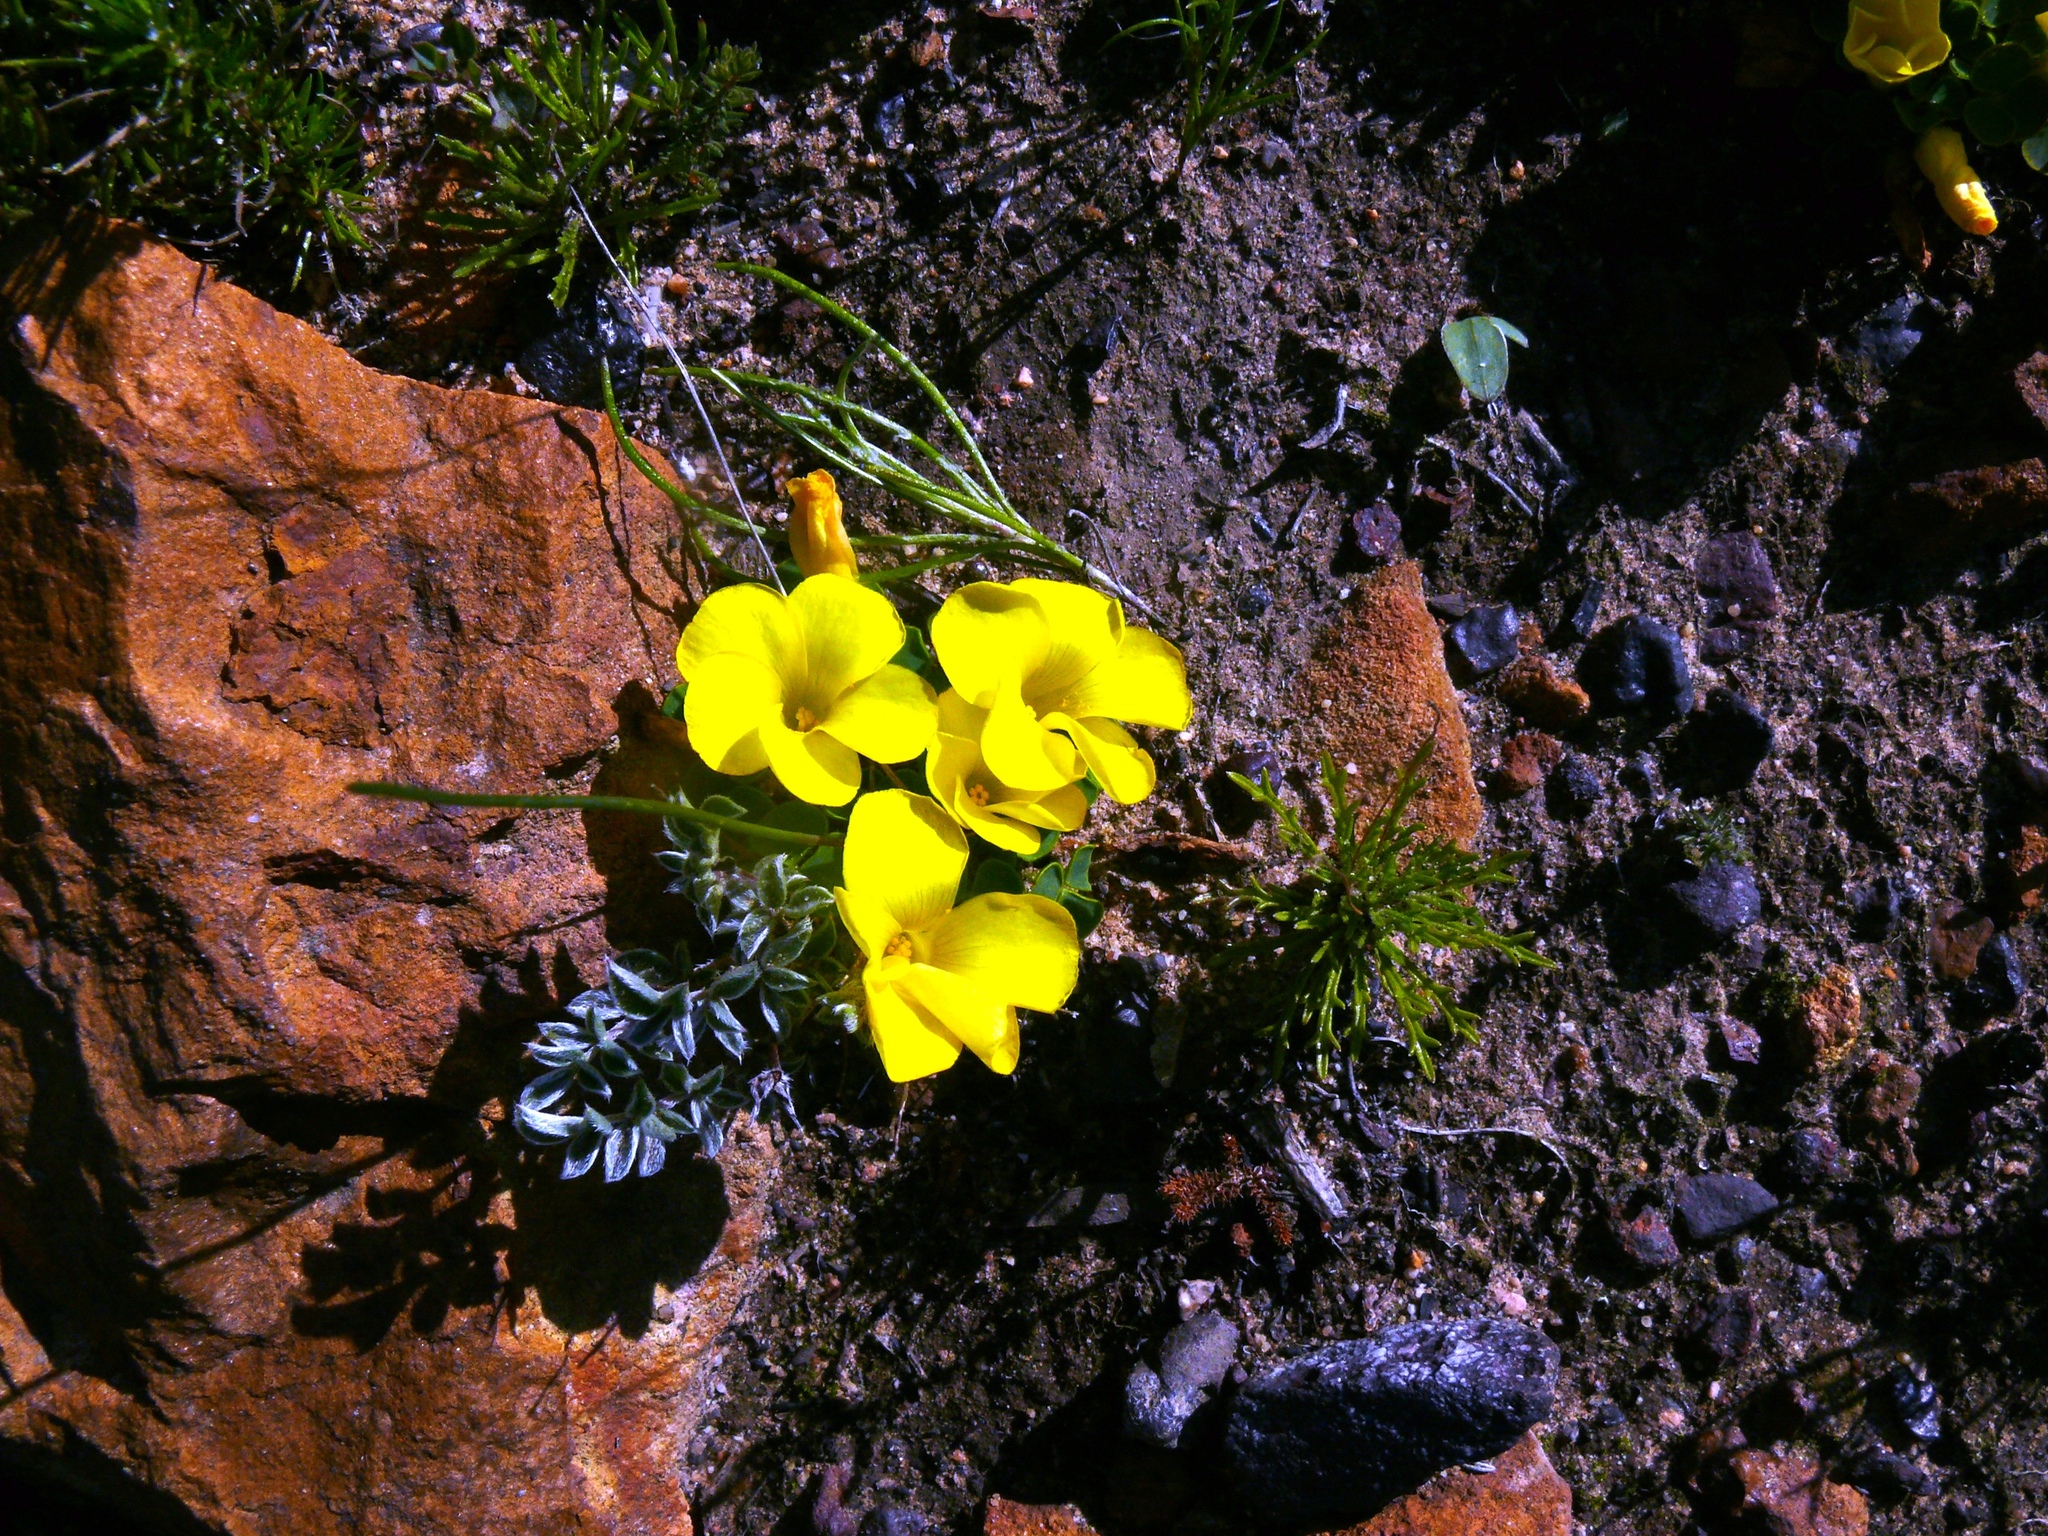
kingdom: Plantae
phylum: Tracheophyta
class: Magnoliopsida
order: Oxalidales
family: Oxalidaceae
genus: Oxalis
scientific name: Oxalis luteola
